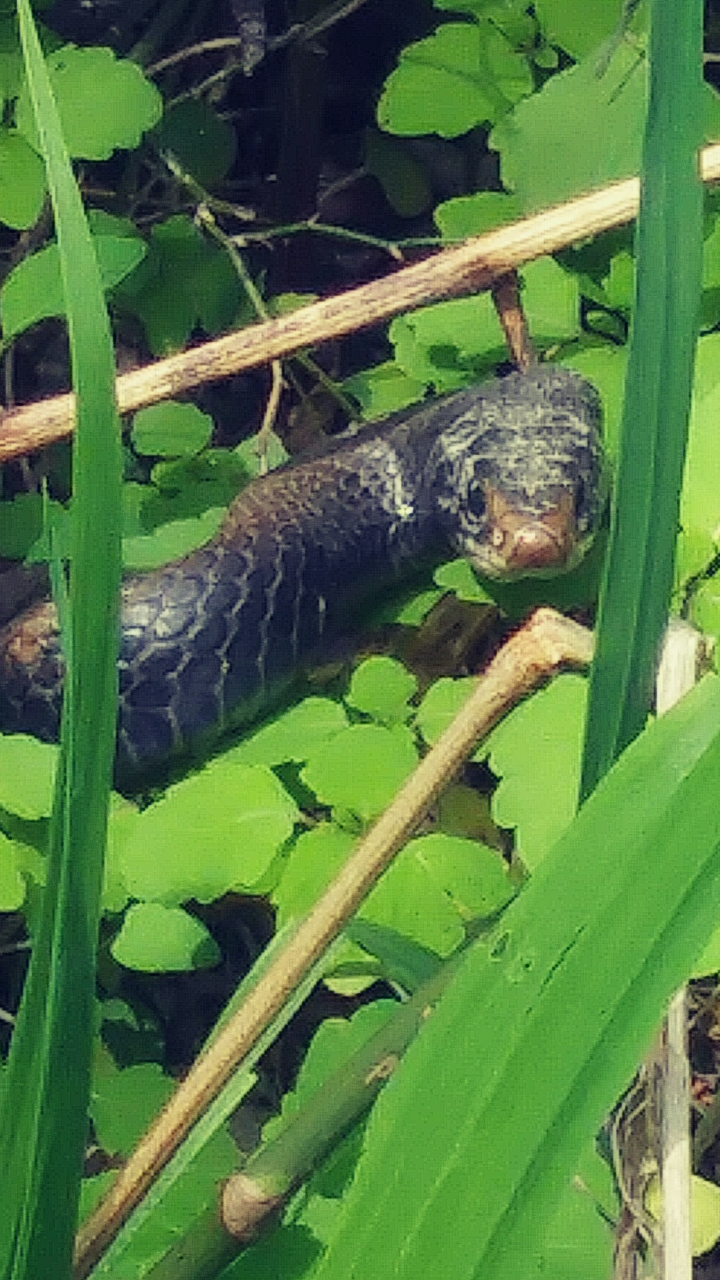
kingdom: Animalia
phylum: Chordata
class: Squamata
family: Colubridae
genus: Coluber
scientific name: Coluber constrictor
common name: Eastern racer
